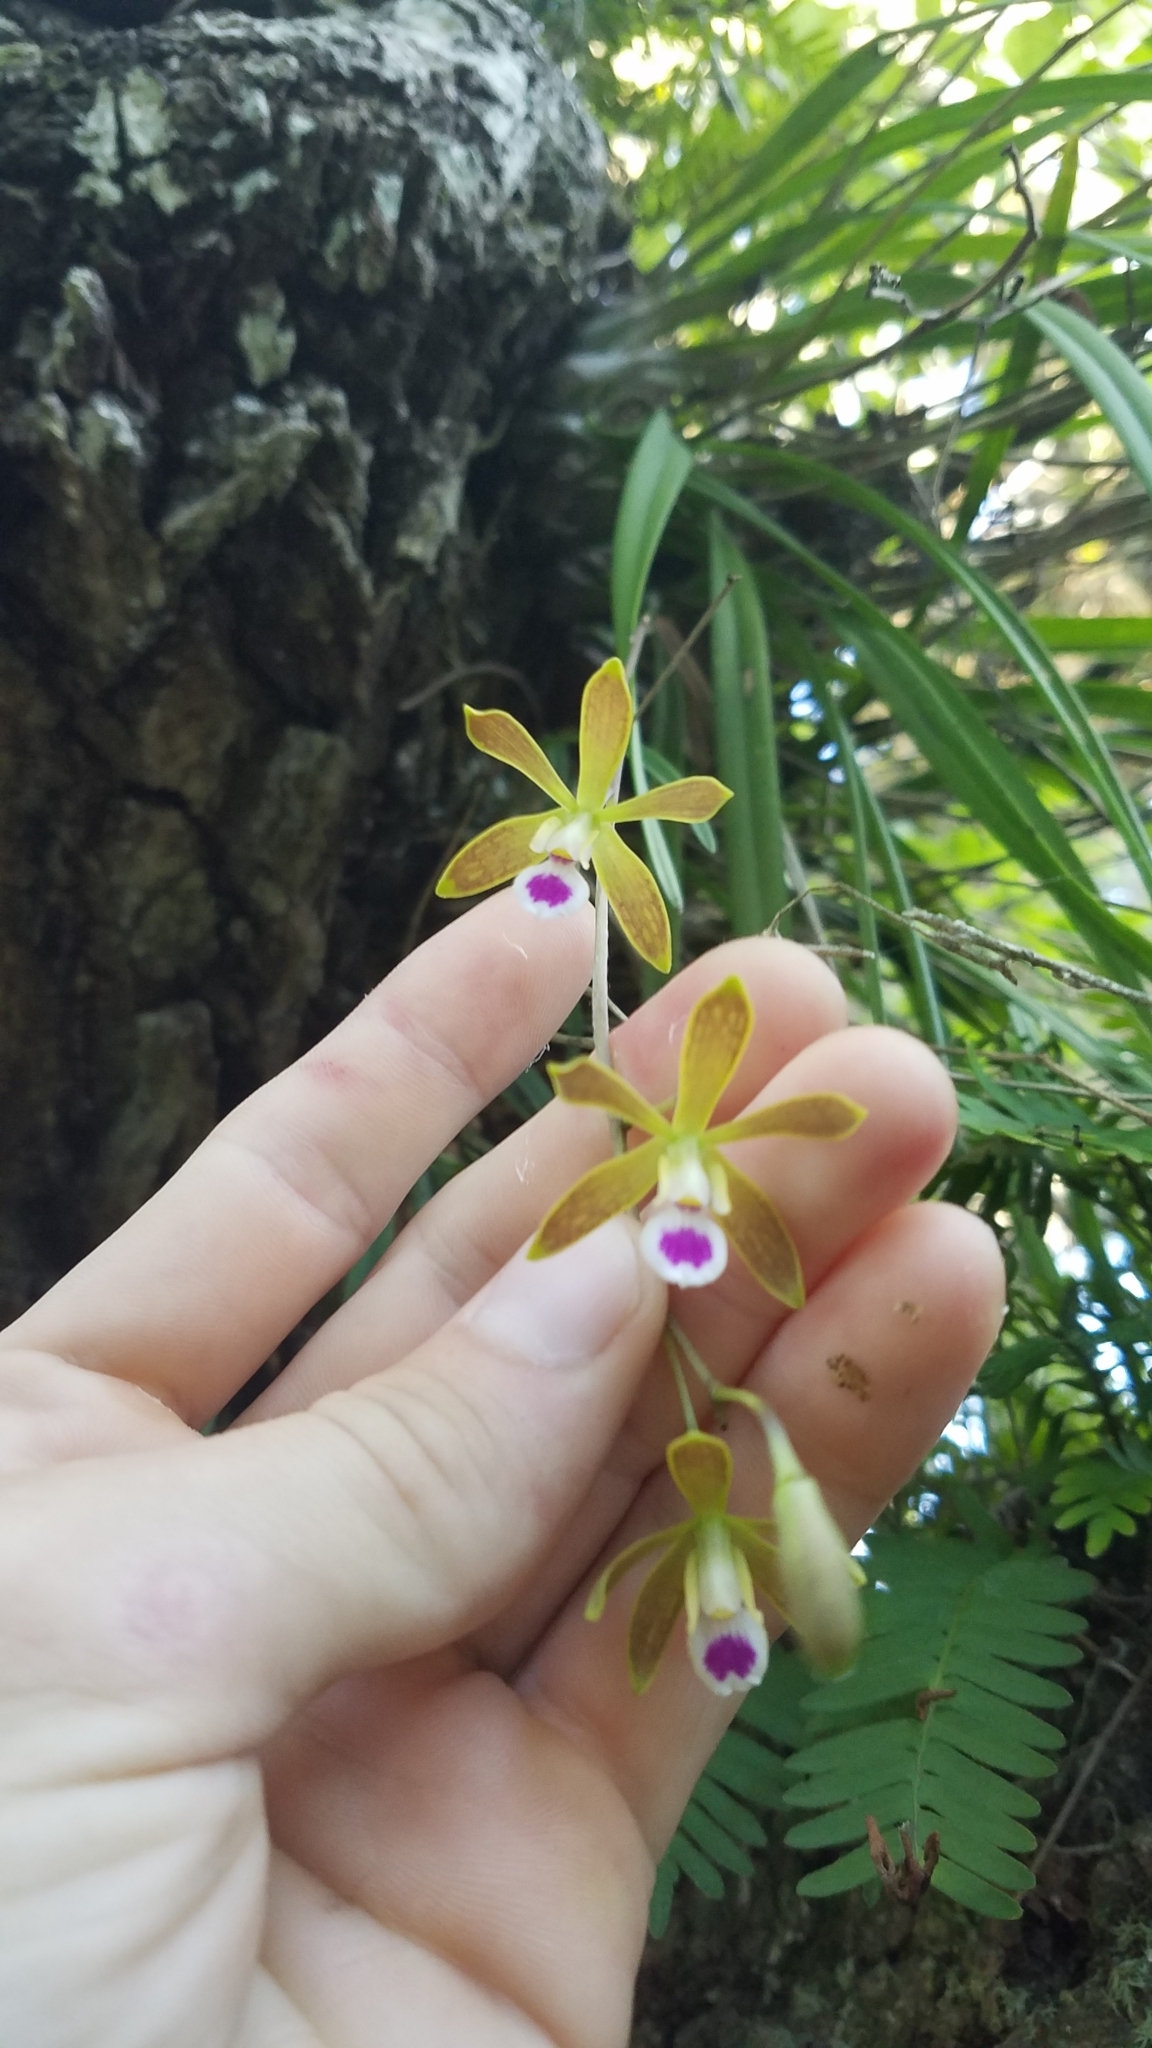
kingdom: Plantae
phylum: Tracheophyta
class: Liliopsida
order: Asparagales
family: Orchidaceae
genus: Encyclia
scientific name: Encyclia tampensis
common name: Florida butterfly orchid
